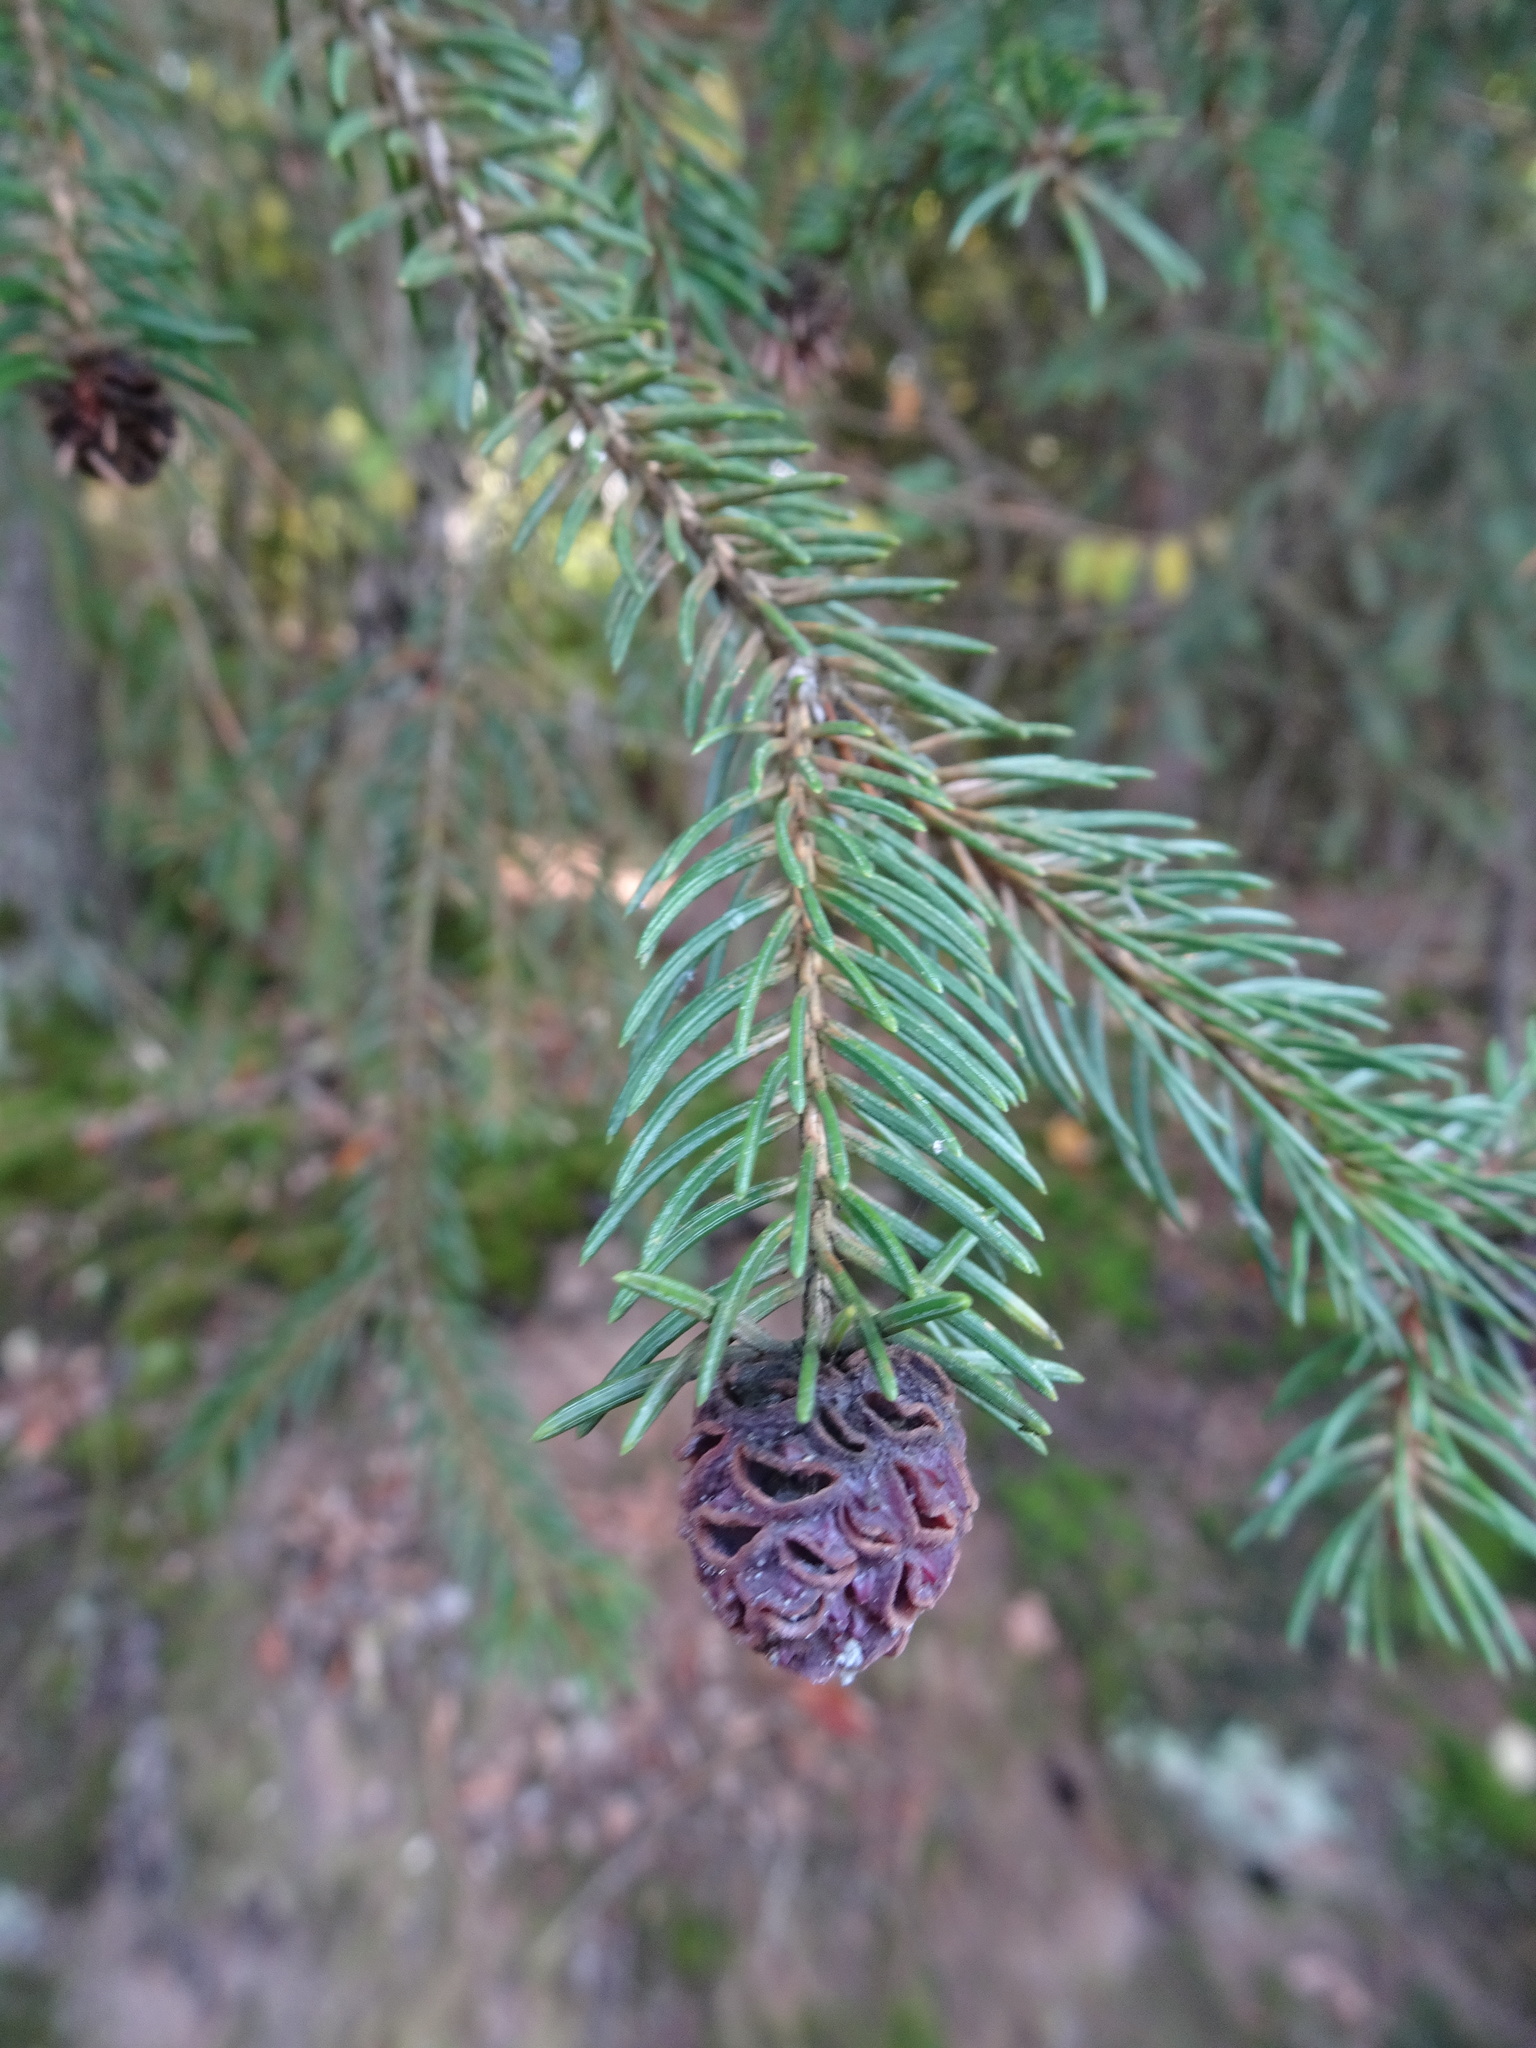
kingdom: Plantae
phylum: Tracheophyta
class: Pinopsida
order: Pinales
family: Pinaceae
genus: Picea
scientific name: Picea abies
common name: Norway spruce
